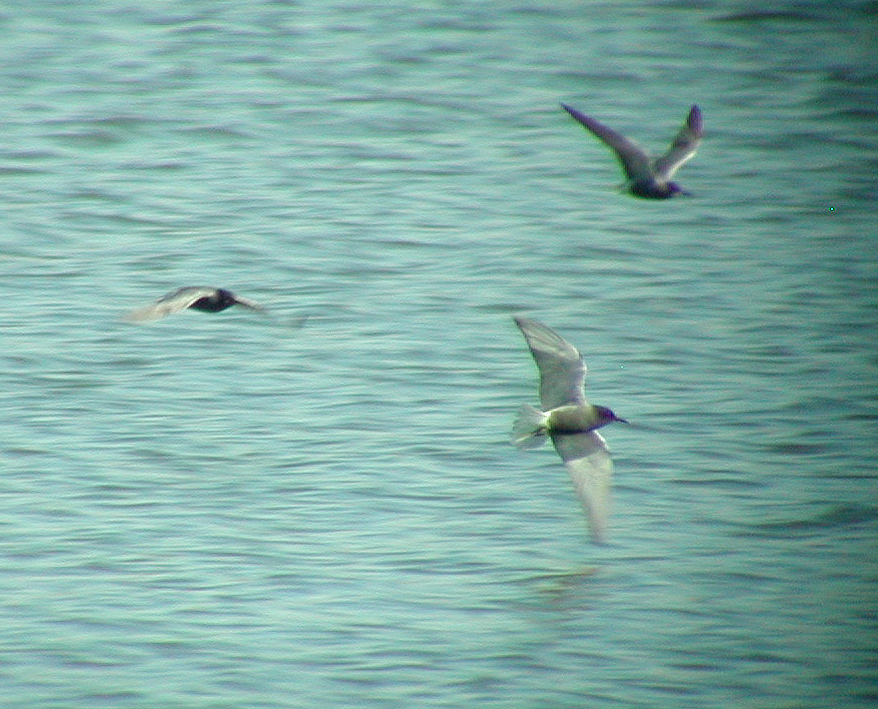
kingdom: Animalia
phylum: Chordata
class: Aves
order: Charadriiformes
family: Laridae
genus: Chlidonias
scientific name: Chlidonias niger
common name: Black tern
